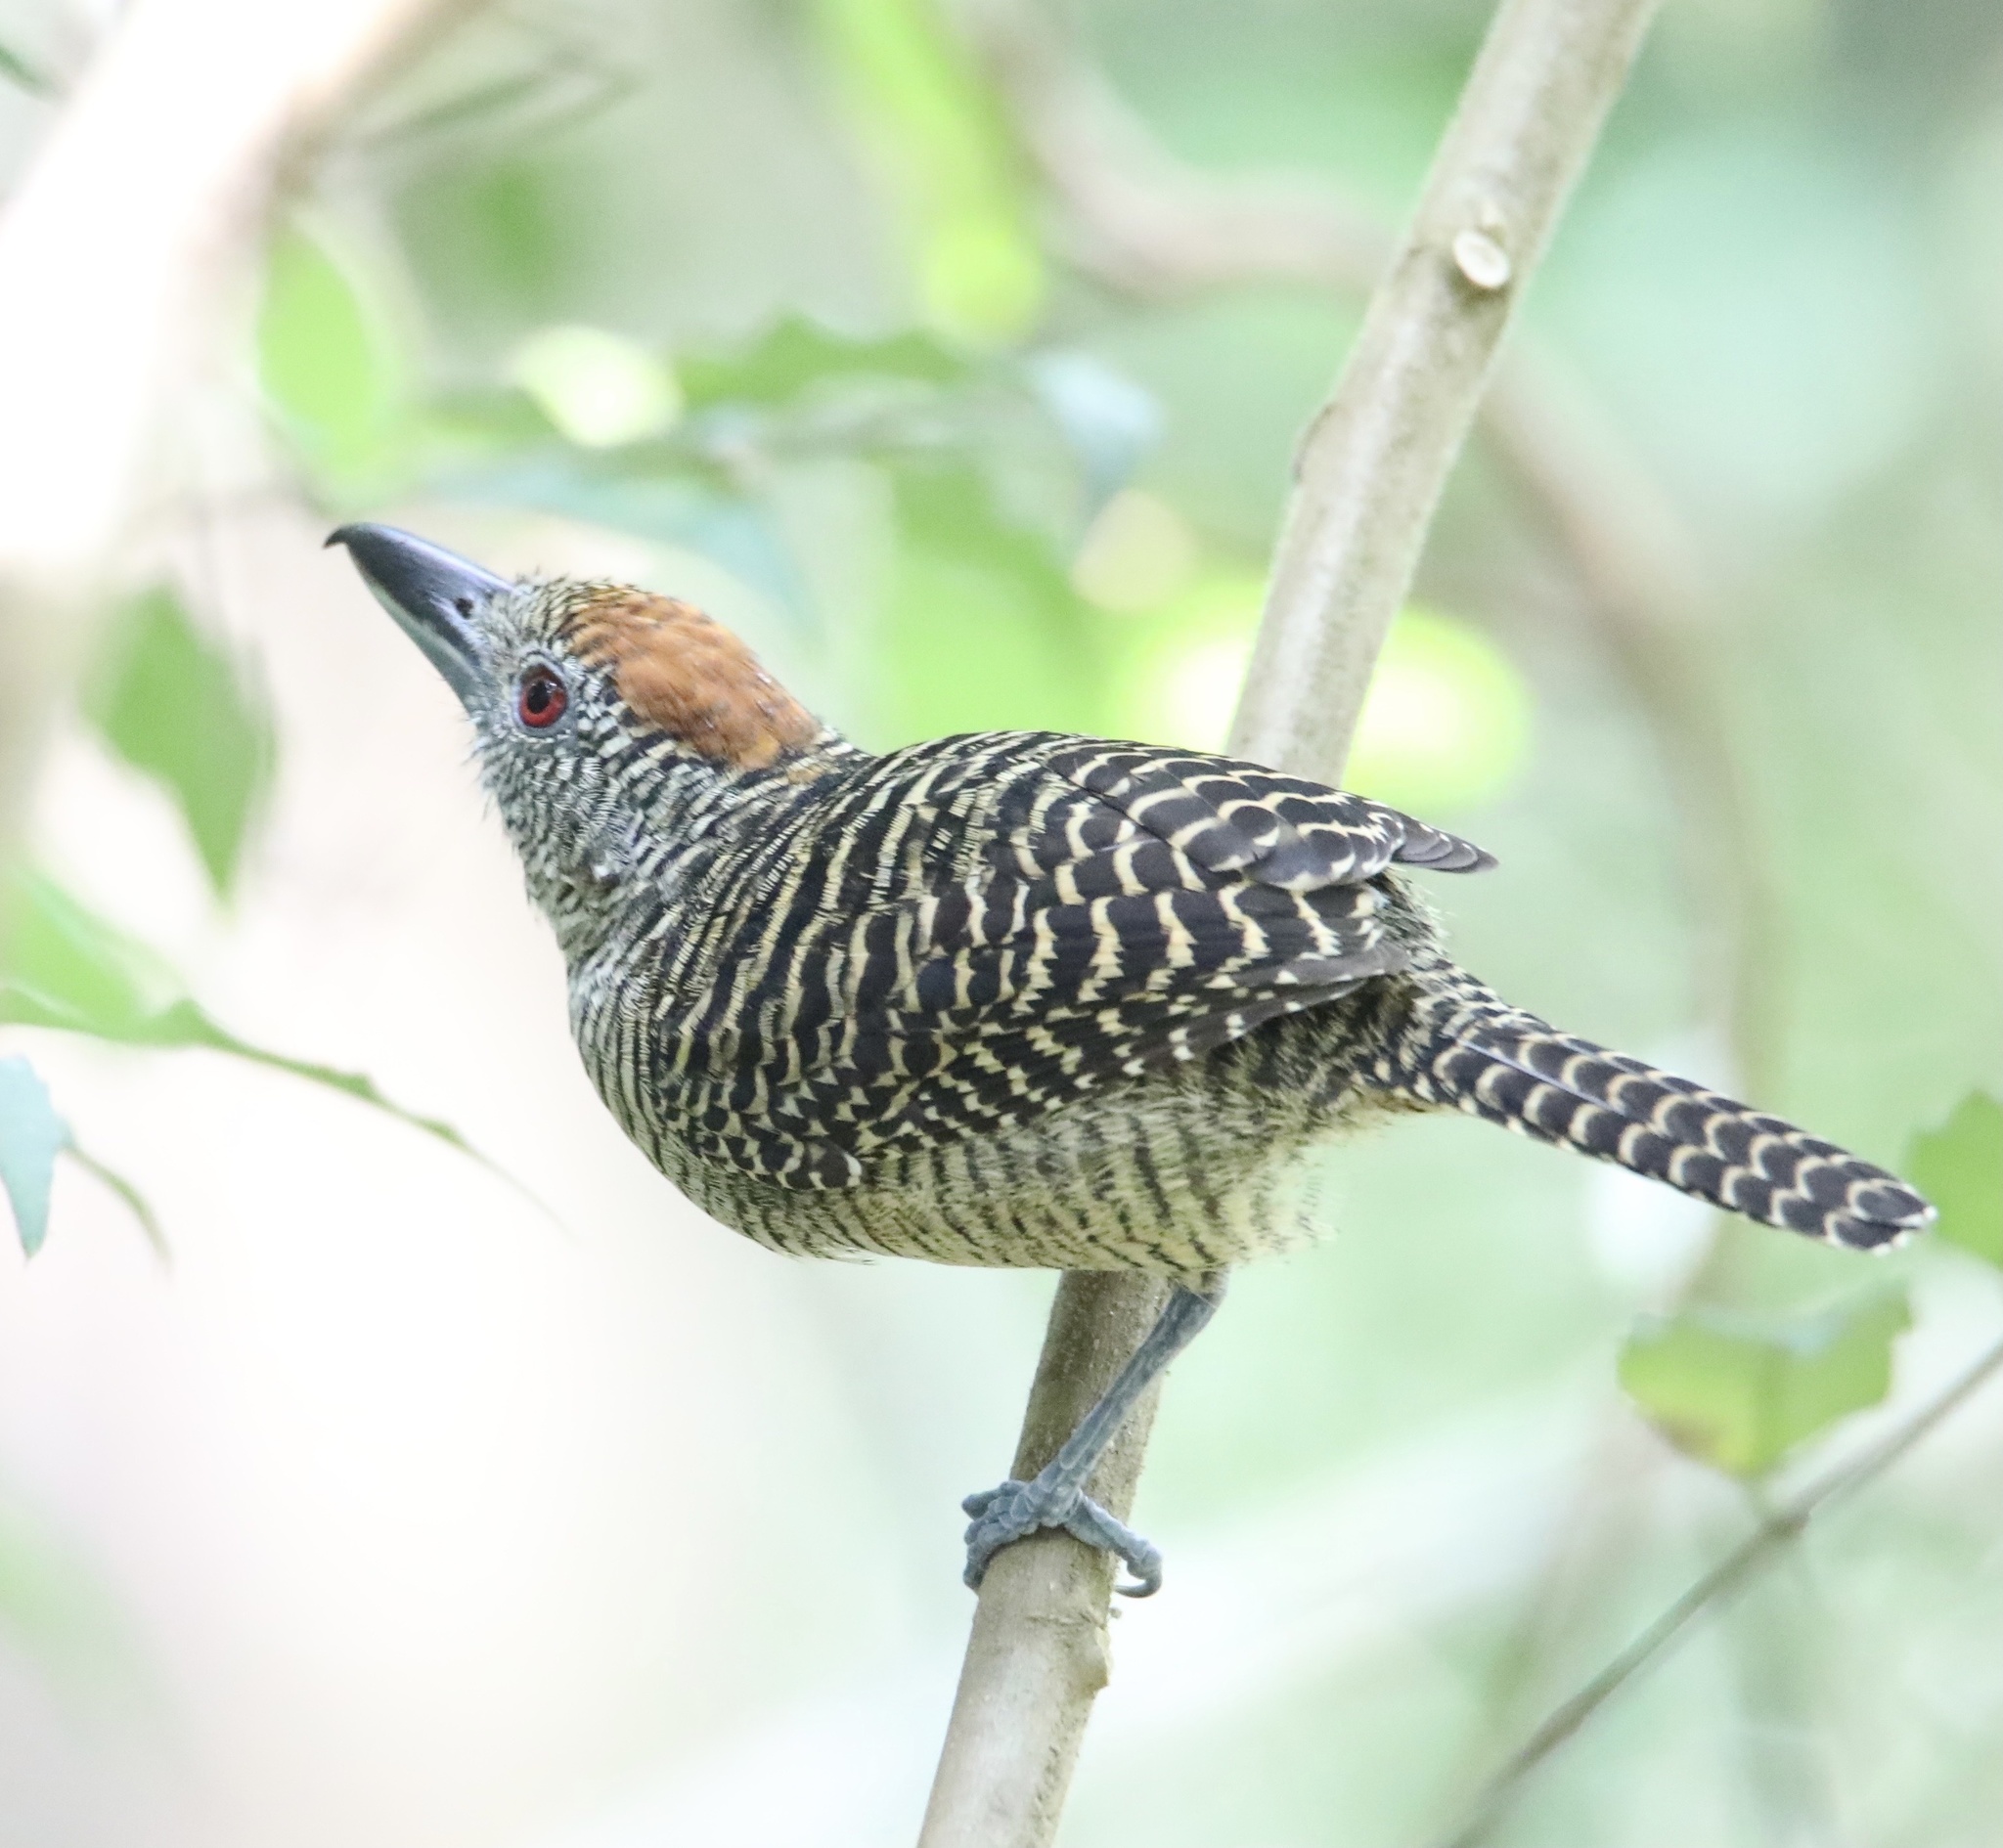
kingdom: Animalia
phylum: Chordata
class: Aves
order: Passeriformes
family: Thamnophilidae
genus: Cymbilaimus
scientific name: Cymbilaimus lineatus
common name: Fasciated antshrike
